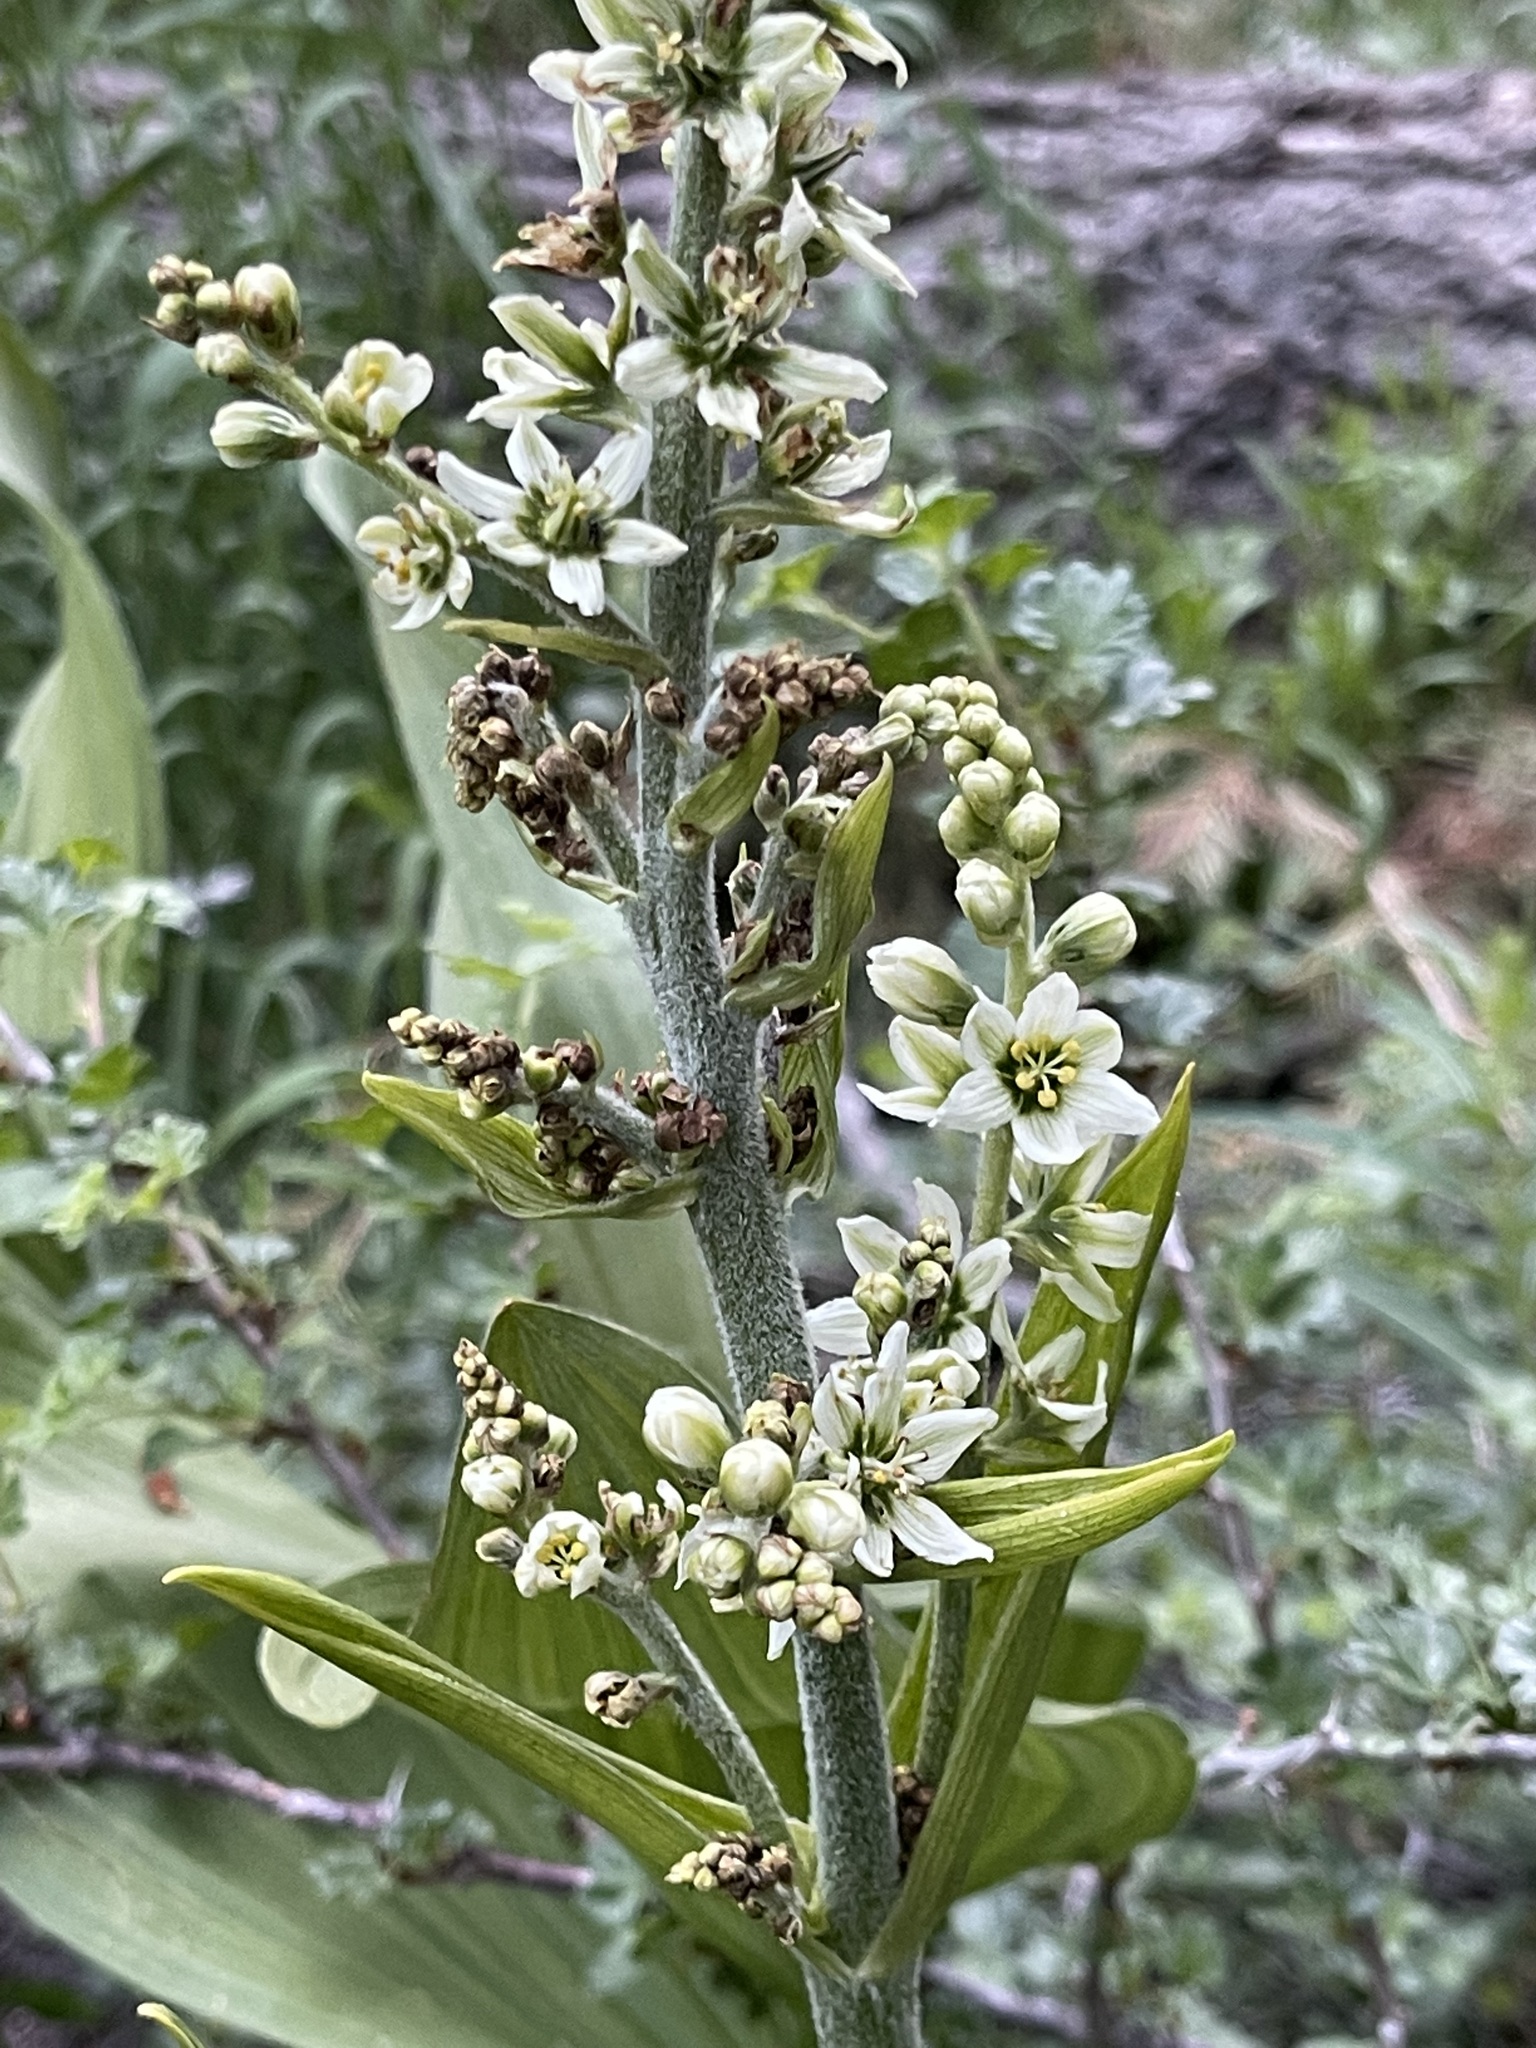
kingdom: Plantae
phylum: Tracheophyta
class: Liliopsida
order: Liliales
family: Melanthiaceae
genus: Veratrum
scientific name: Veratrum californicum
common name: California veratrum
